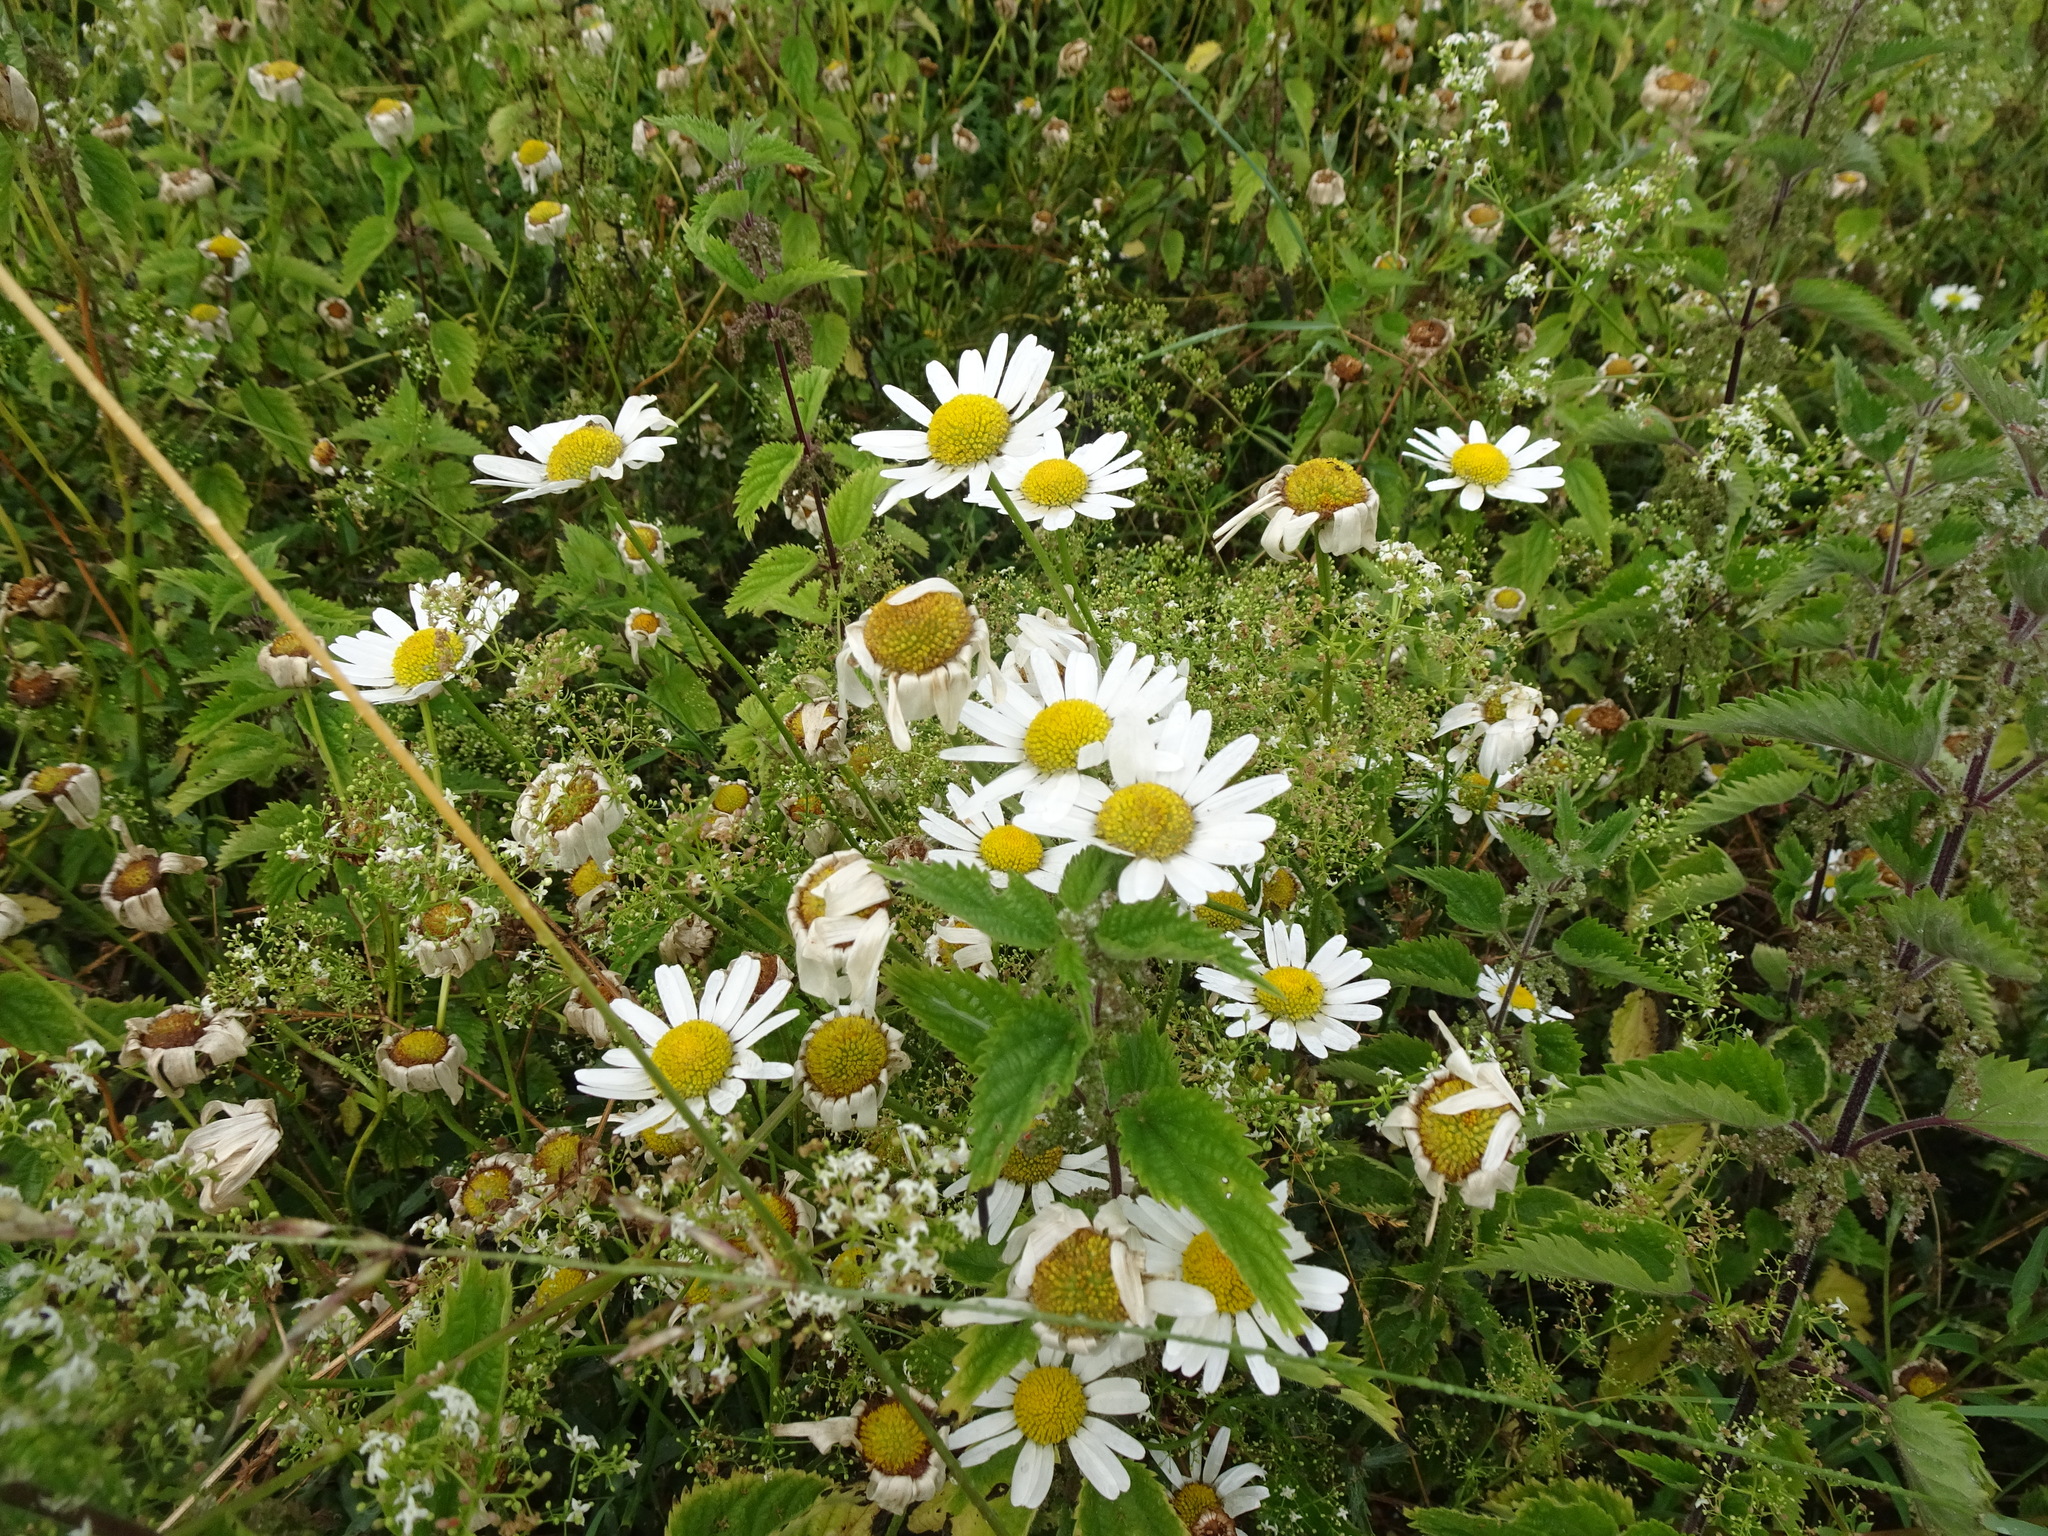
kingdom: Plantae
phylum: Tracheophyta
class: Magnoliopsida
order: Asterales
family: Asteraceae
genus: Leucanthemum
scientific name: Leucanthemum vulgare
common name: Oxeye daisy
